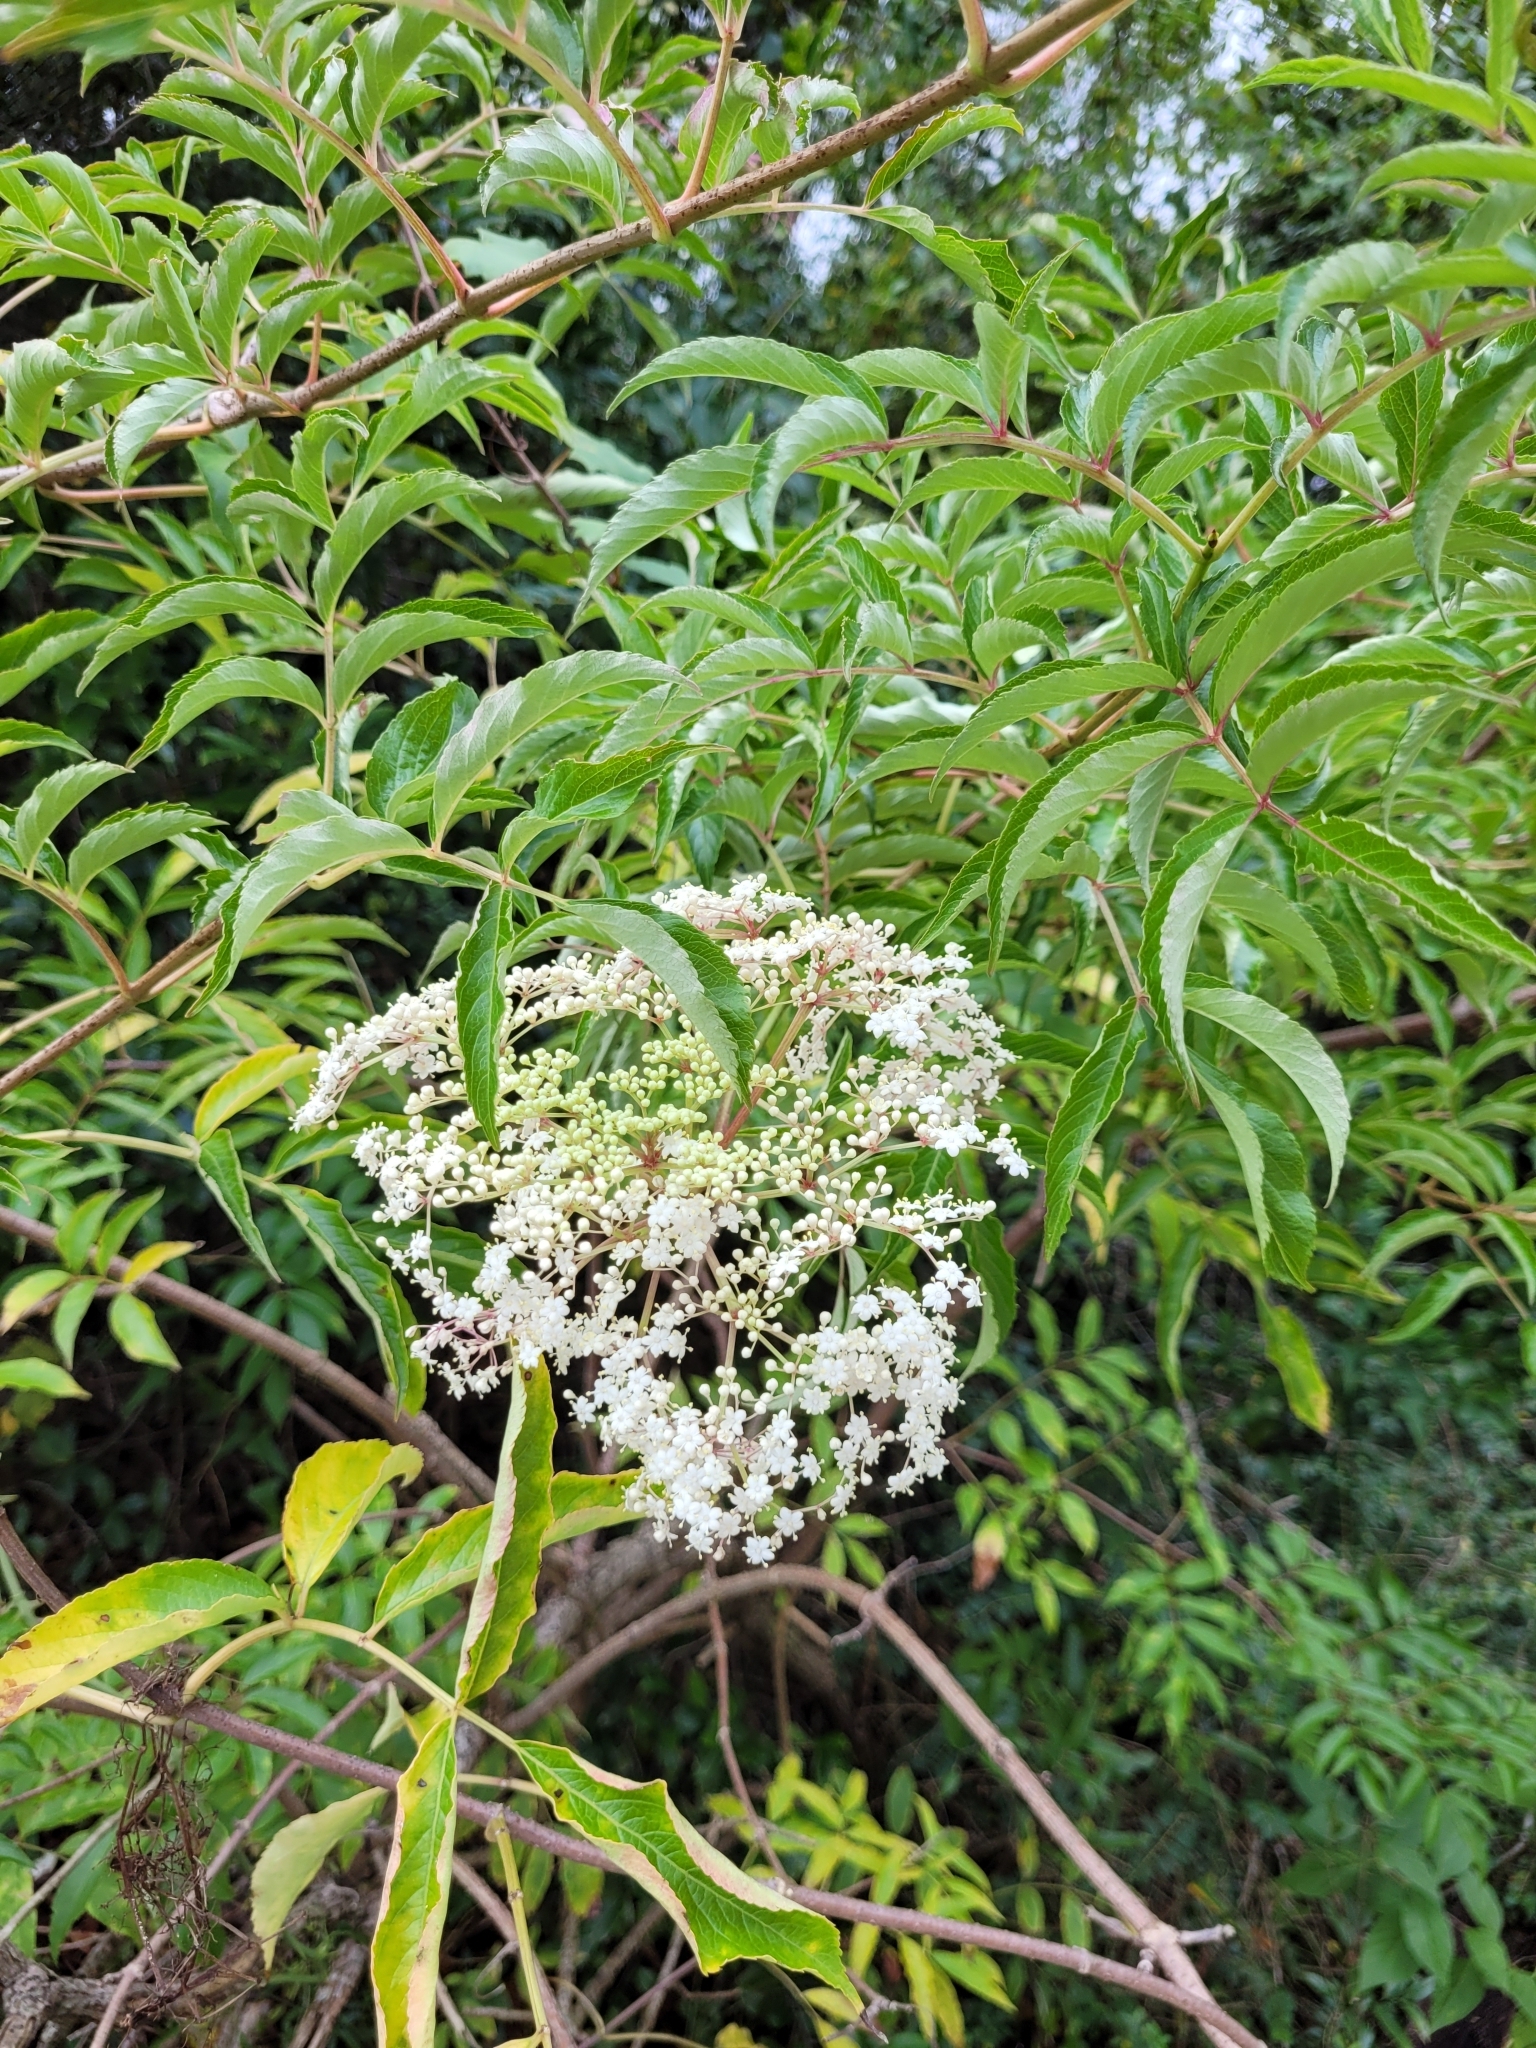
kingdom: Plantae
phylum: Tracheophyta
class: Magnoliopsida
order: Dipsacales
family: Viburnaceae
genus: Sambucus
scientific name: Sambucus canadensis
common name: American elder
